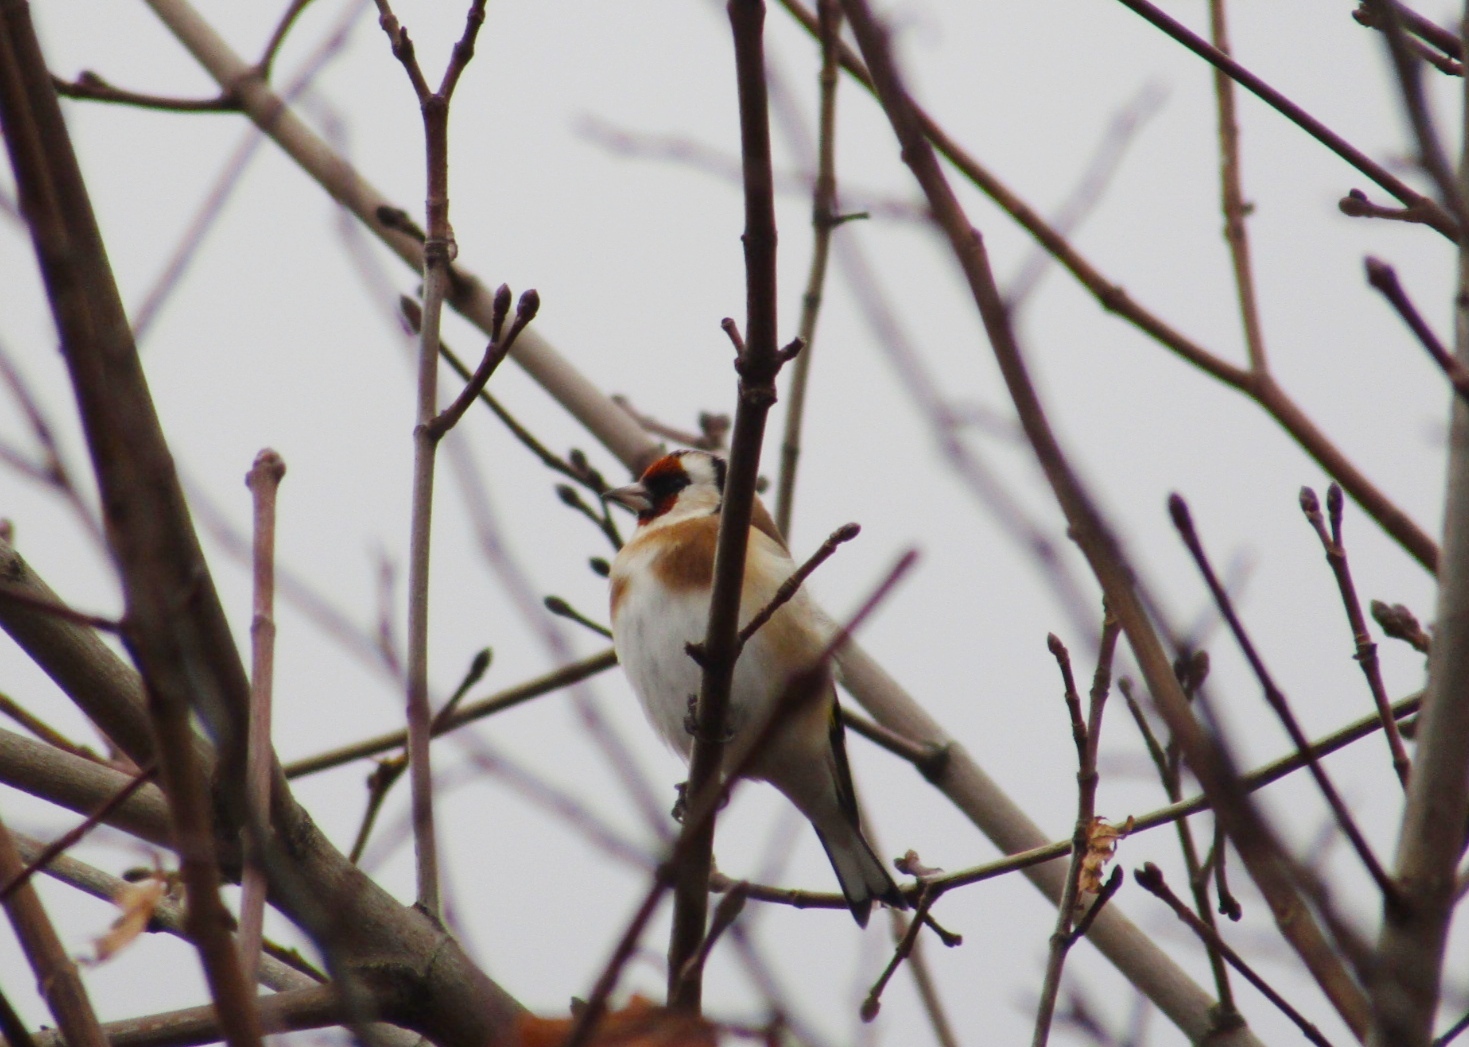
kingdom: Animalia
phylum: Chordata
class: Aves
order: Passeriformes
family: Fringillidae
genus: Carduelis
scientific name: Carduelis carduelis
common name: European goldfinch
